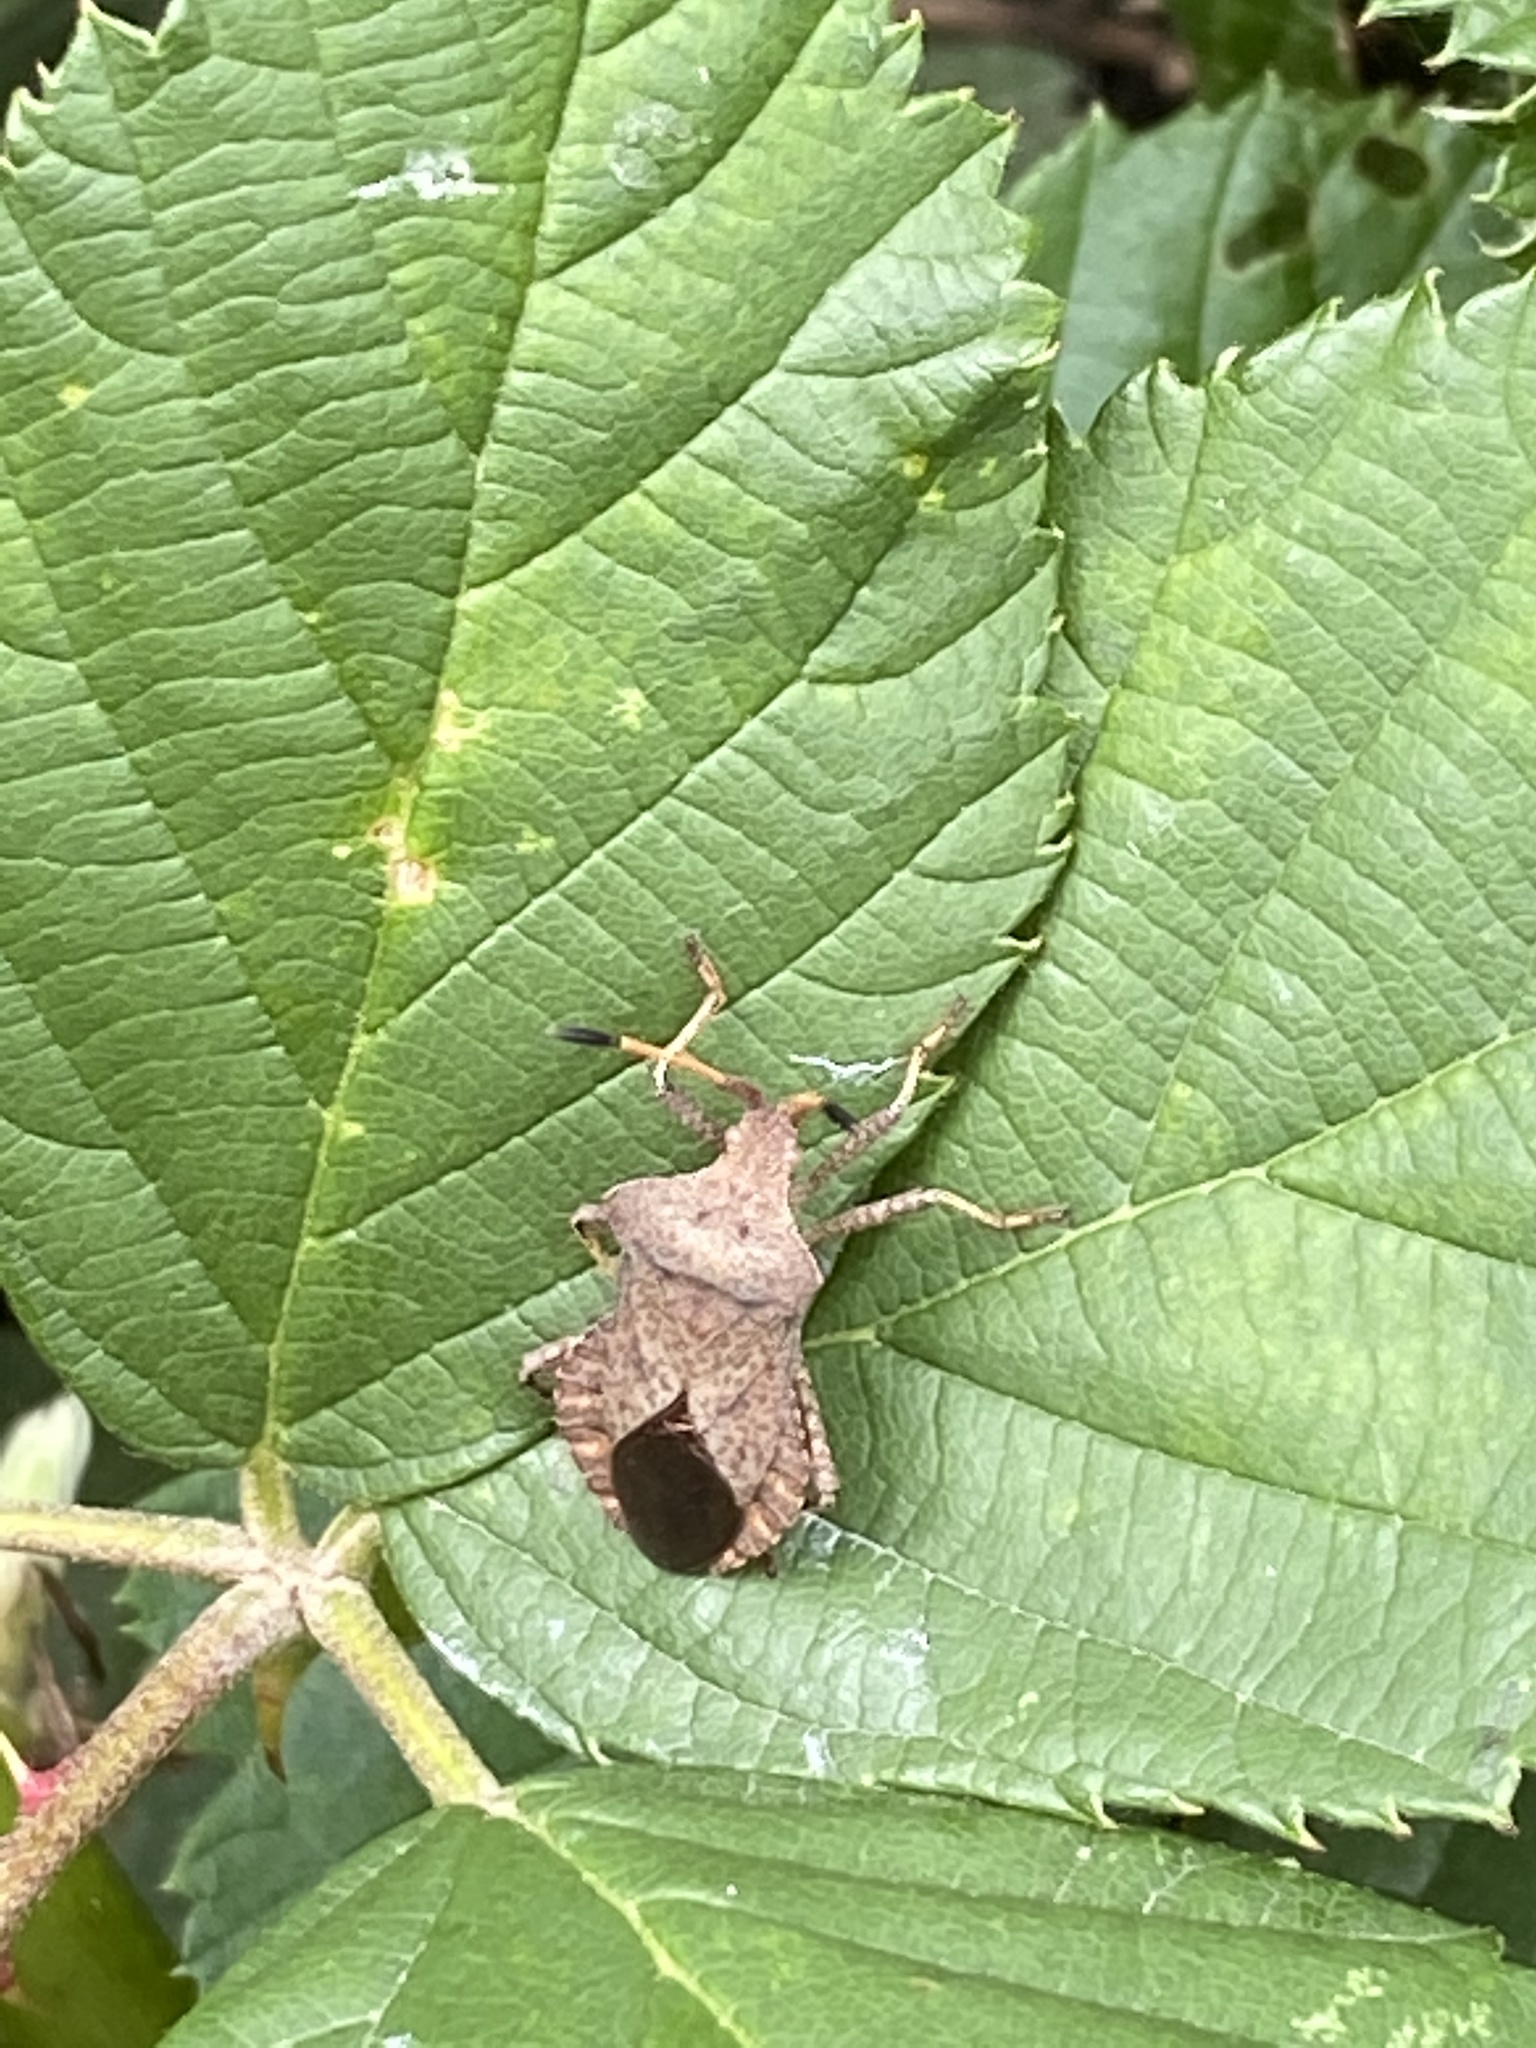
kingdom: Animalia
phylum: Arthropoda
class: Insecta
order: Hemiptera
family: Coreidae
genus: Coreus
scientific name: Coreus marginatus
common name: Dock bug
